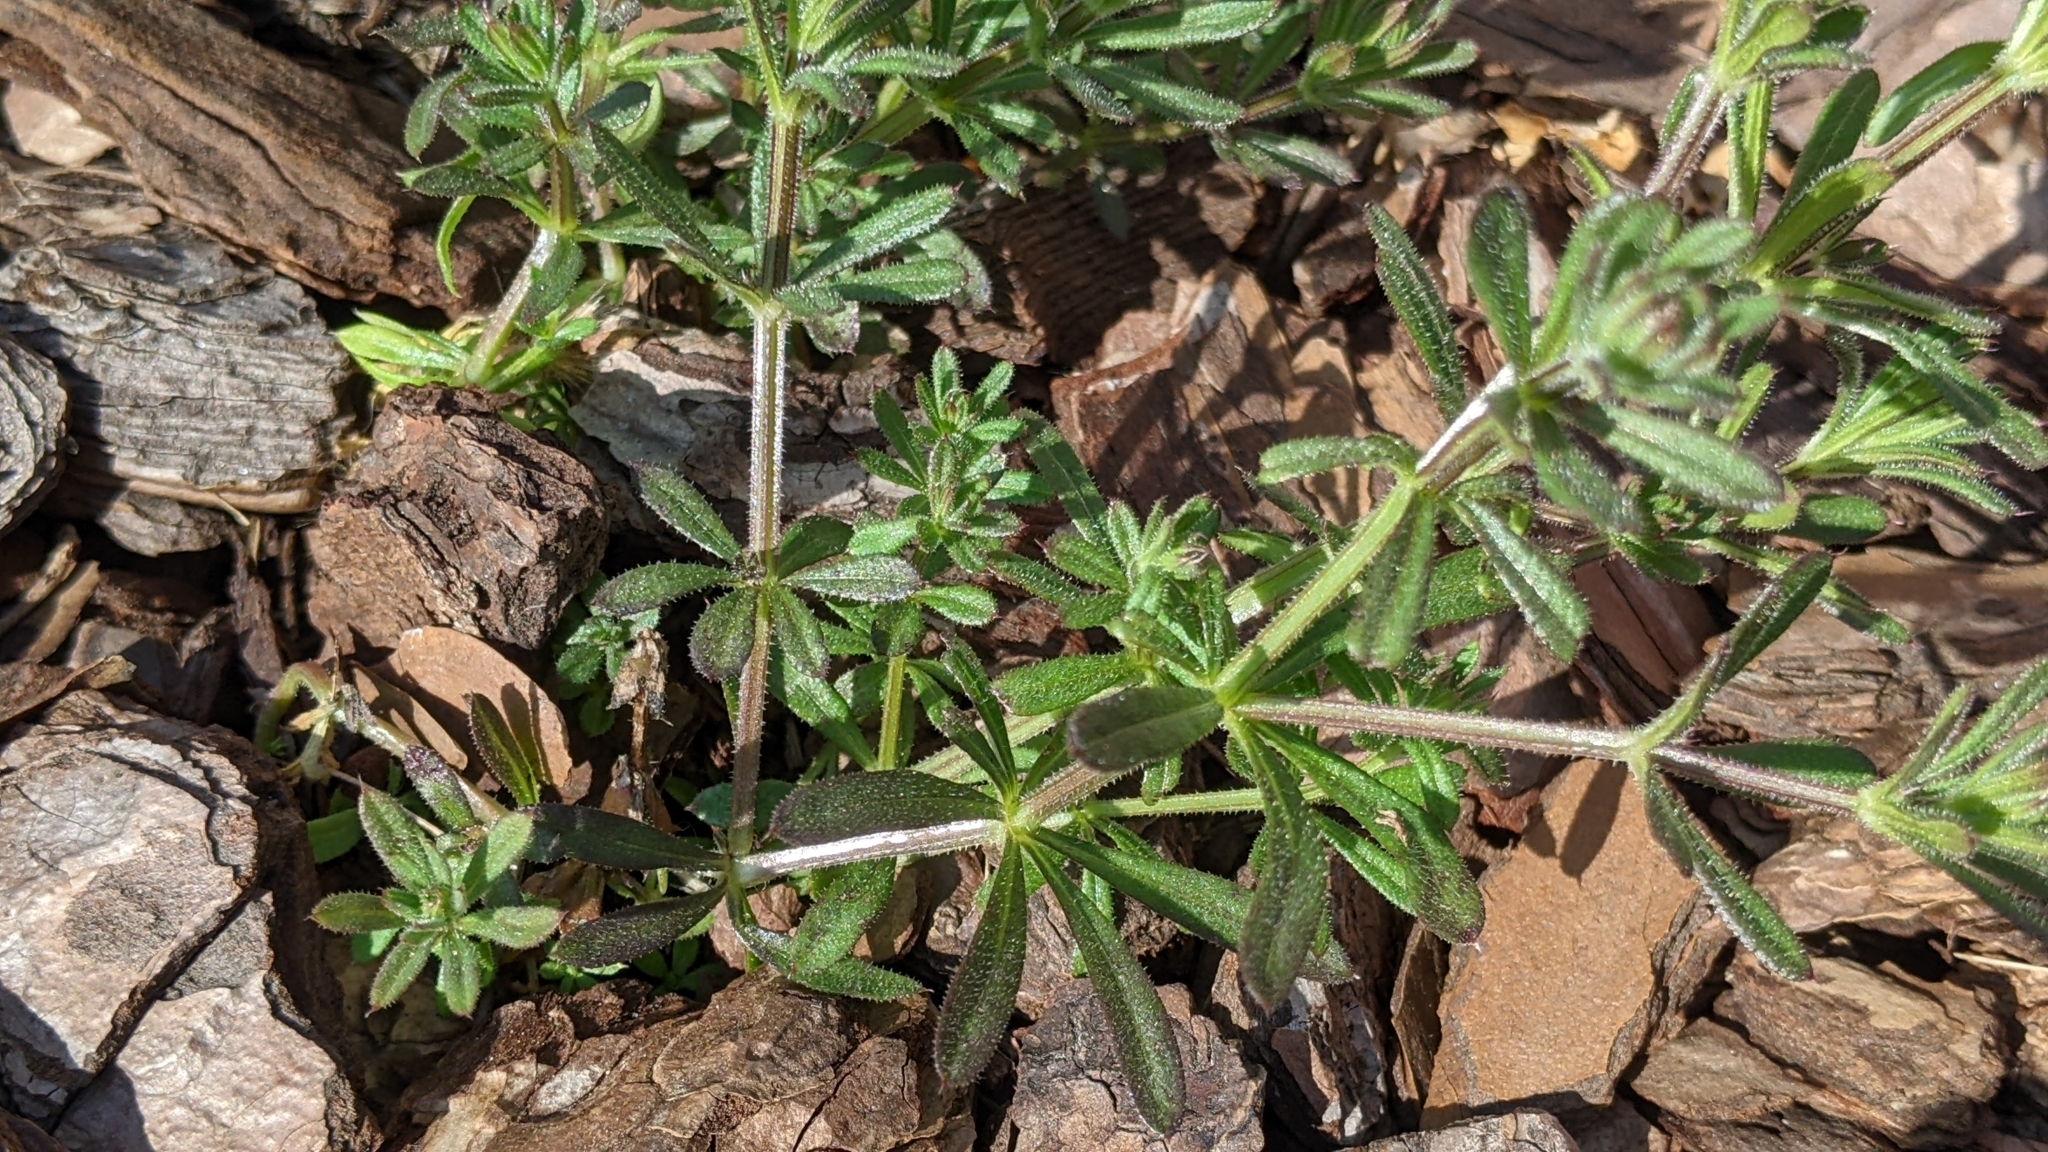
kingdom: Plantae
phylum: Tracheophyta
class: Magnoliopsida
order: Gentianales
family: Rubiaceae
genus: Galium
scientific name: Galium aparine
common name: Cleavers
